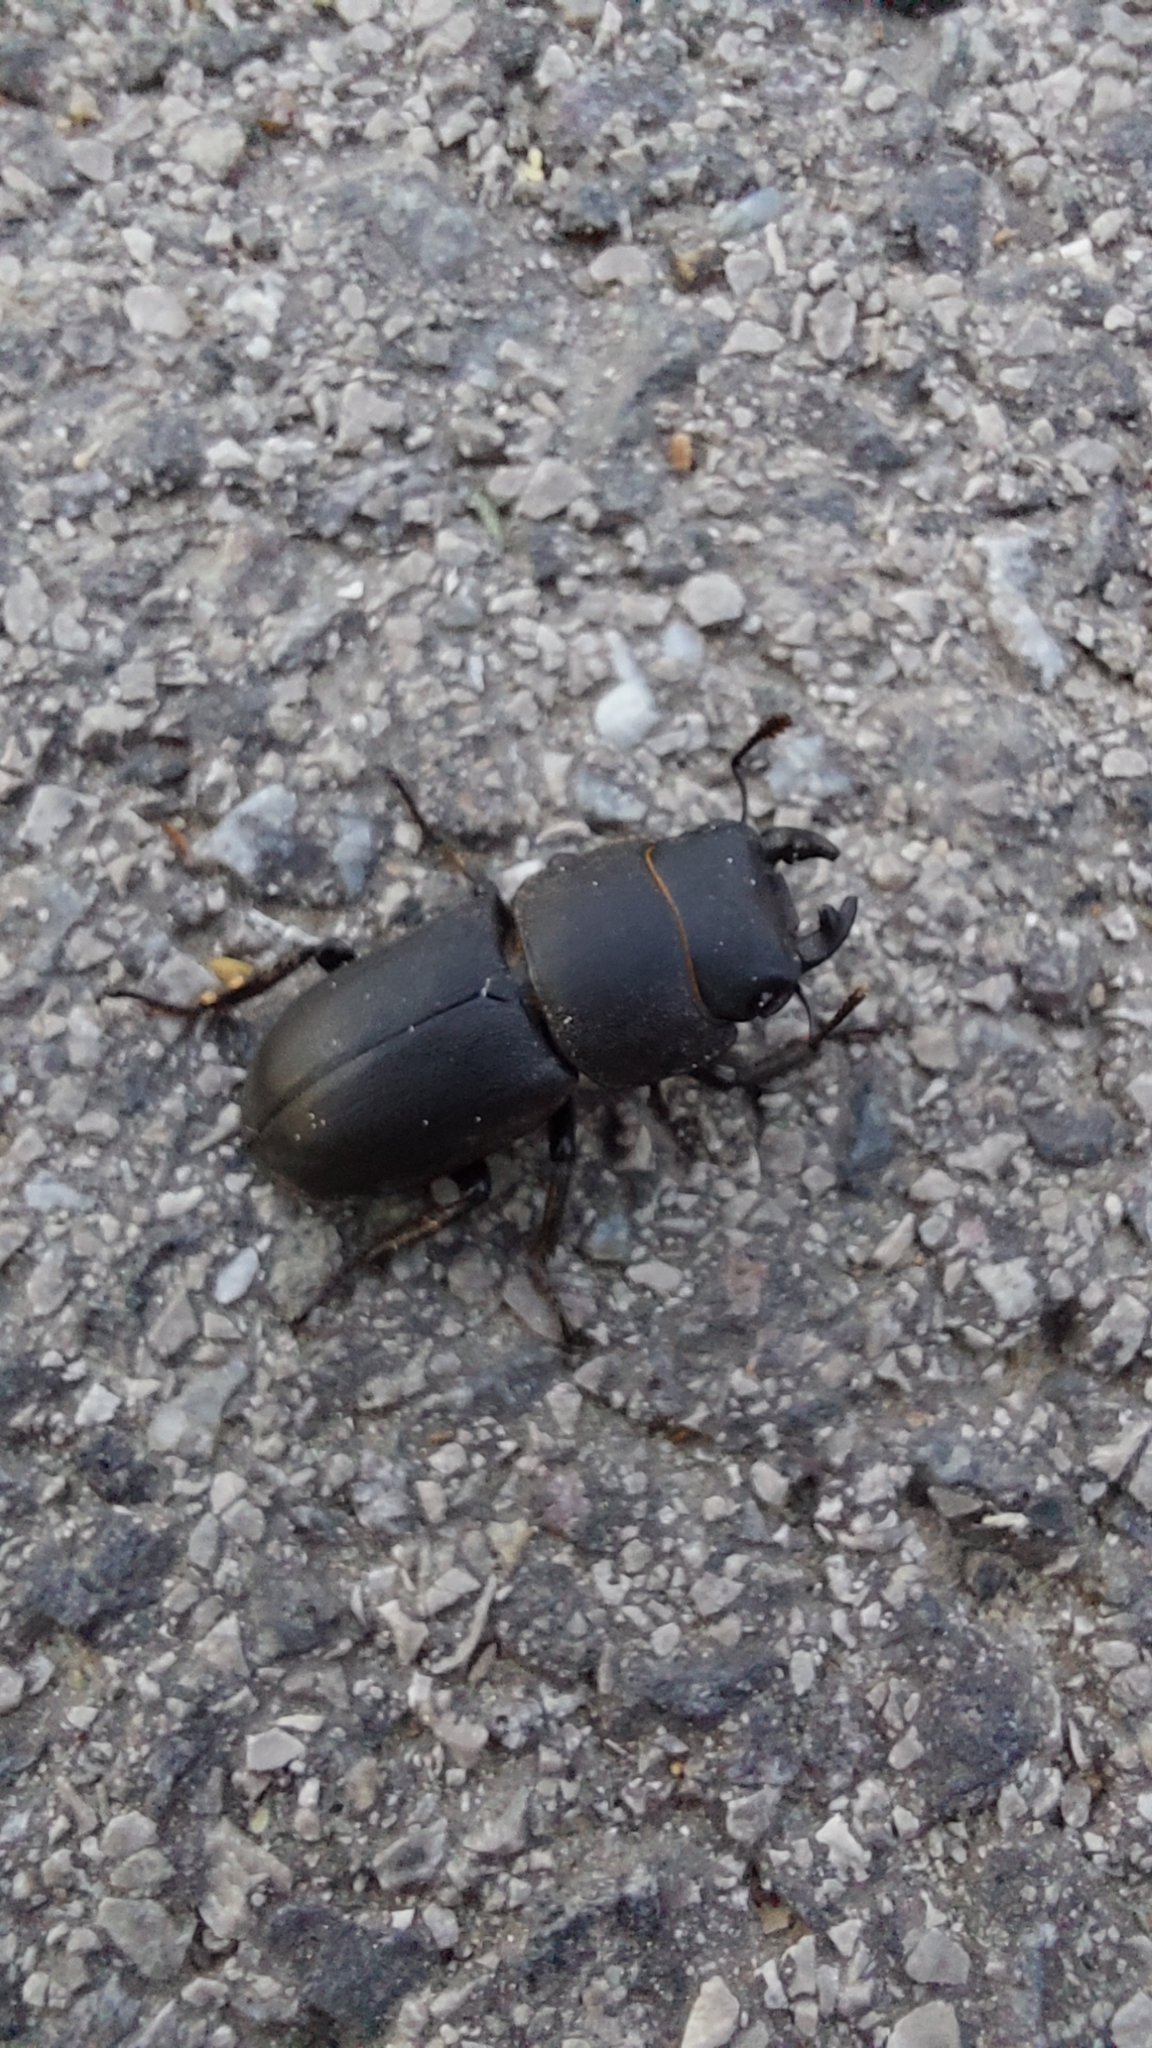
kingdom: Animalia
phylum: Arthropoda
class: Insecta
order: Coleoptera
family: Lucanidae
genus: Dorcus
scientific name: Dorcus parallelipipedus
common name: Lesser stag beetle
